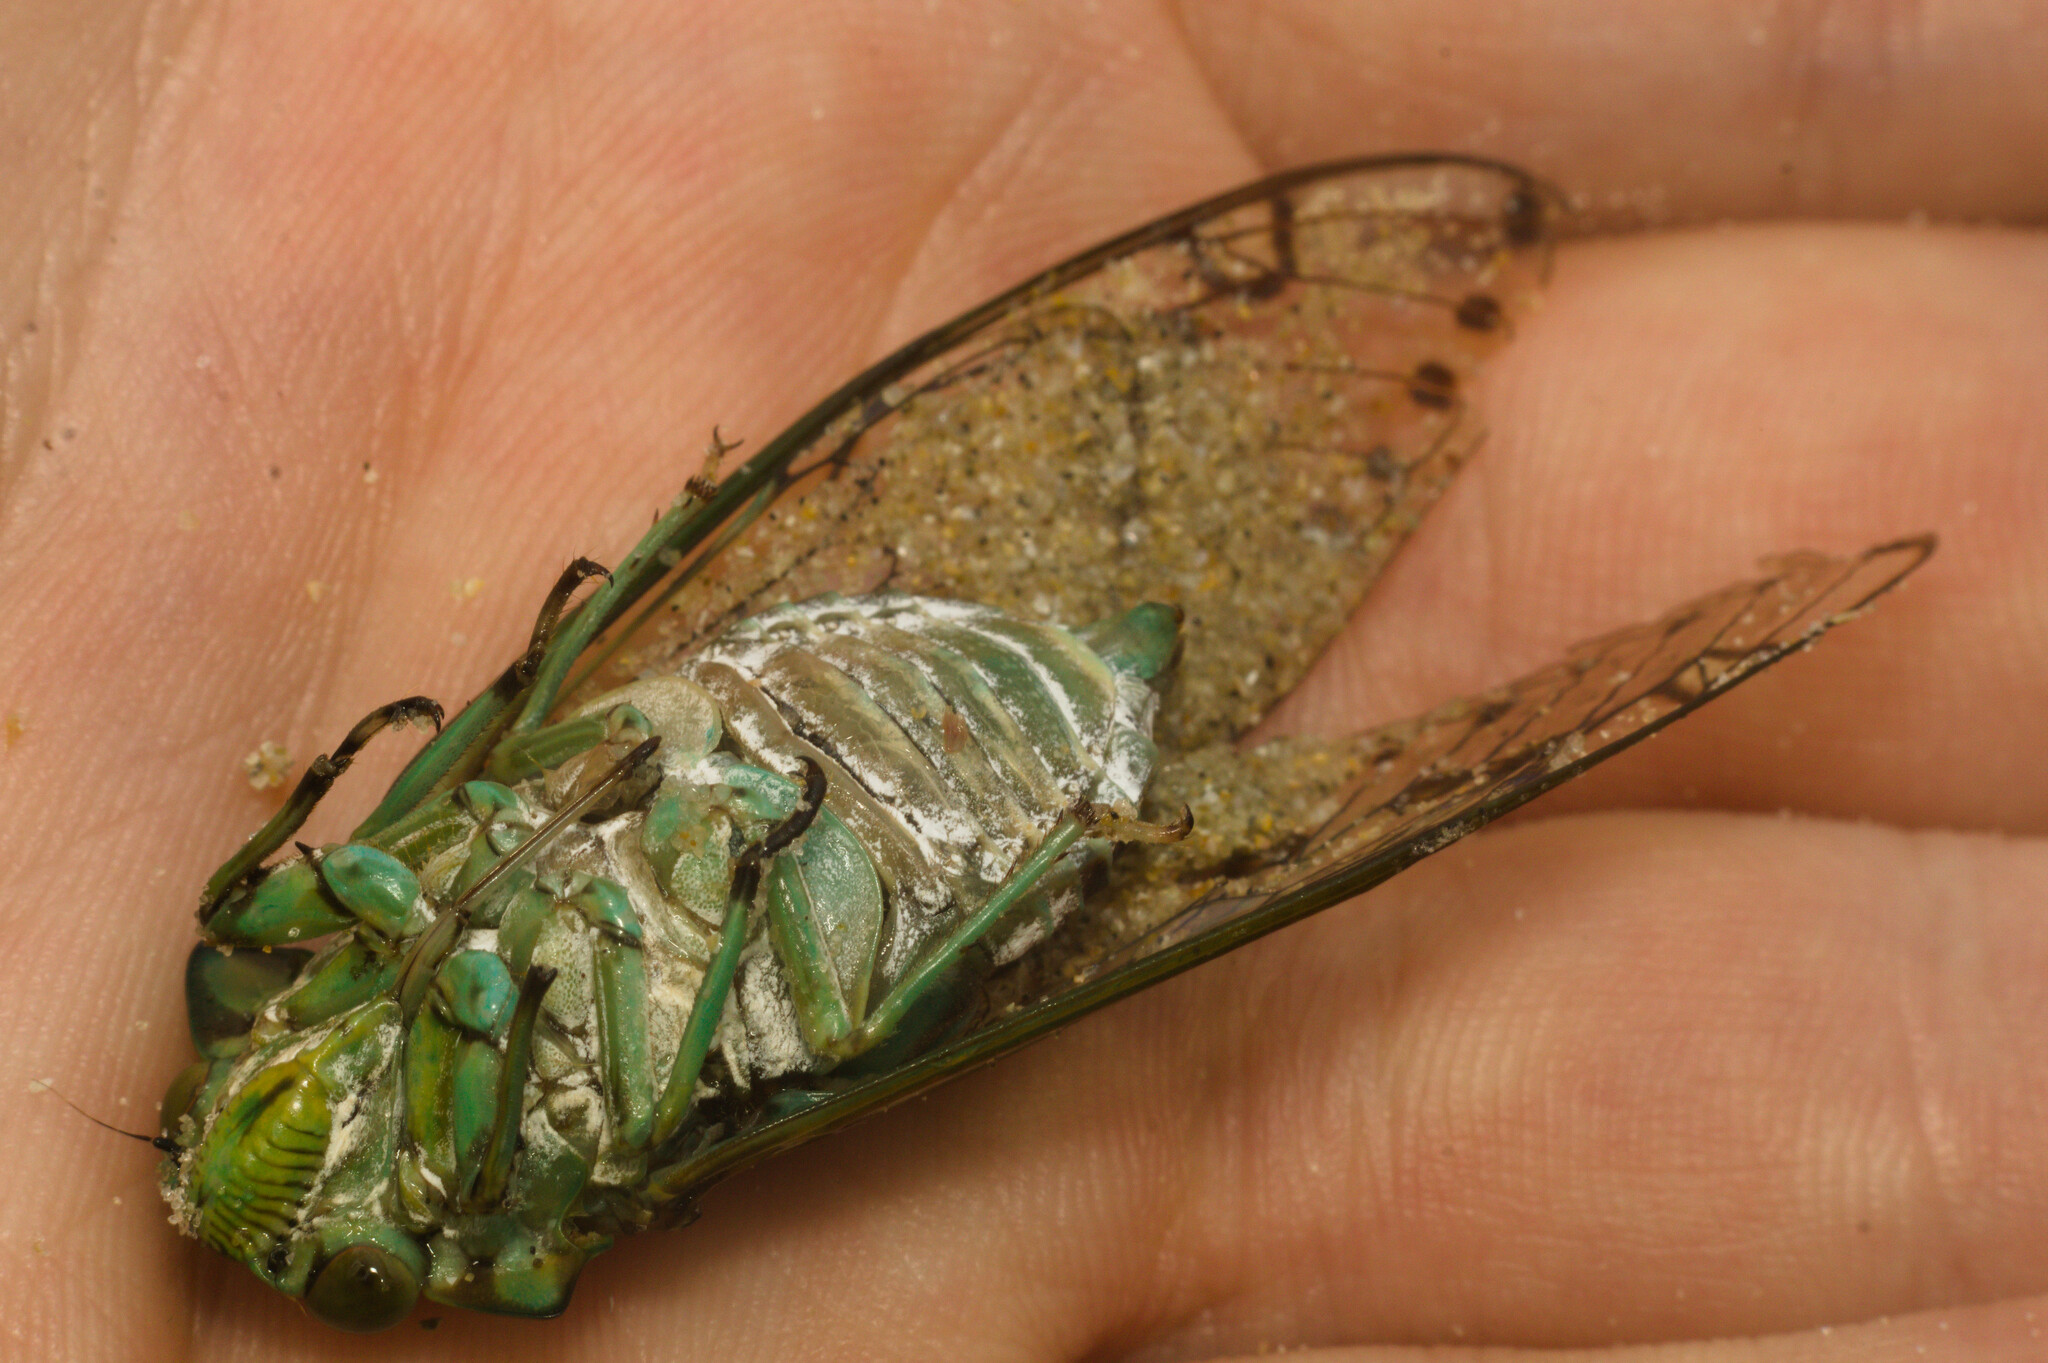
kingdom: Animalia
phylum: Arthropoda
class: Insecta
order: Hemiptera
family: Cicadidae
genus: Zammara
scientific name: Zammara tympanum
